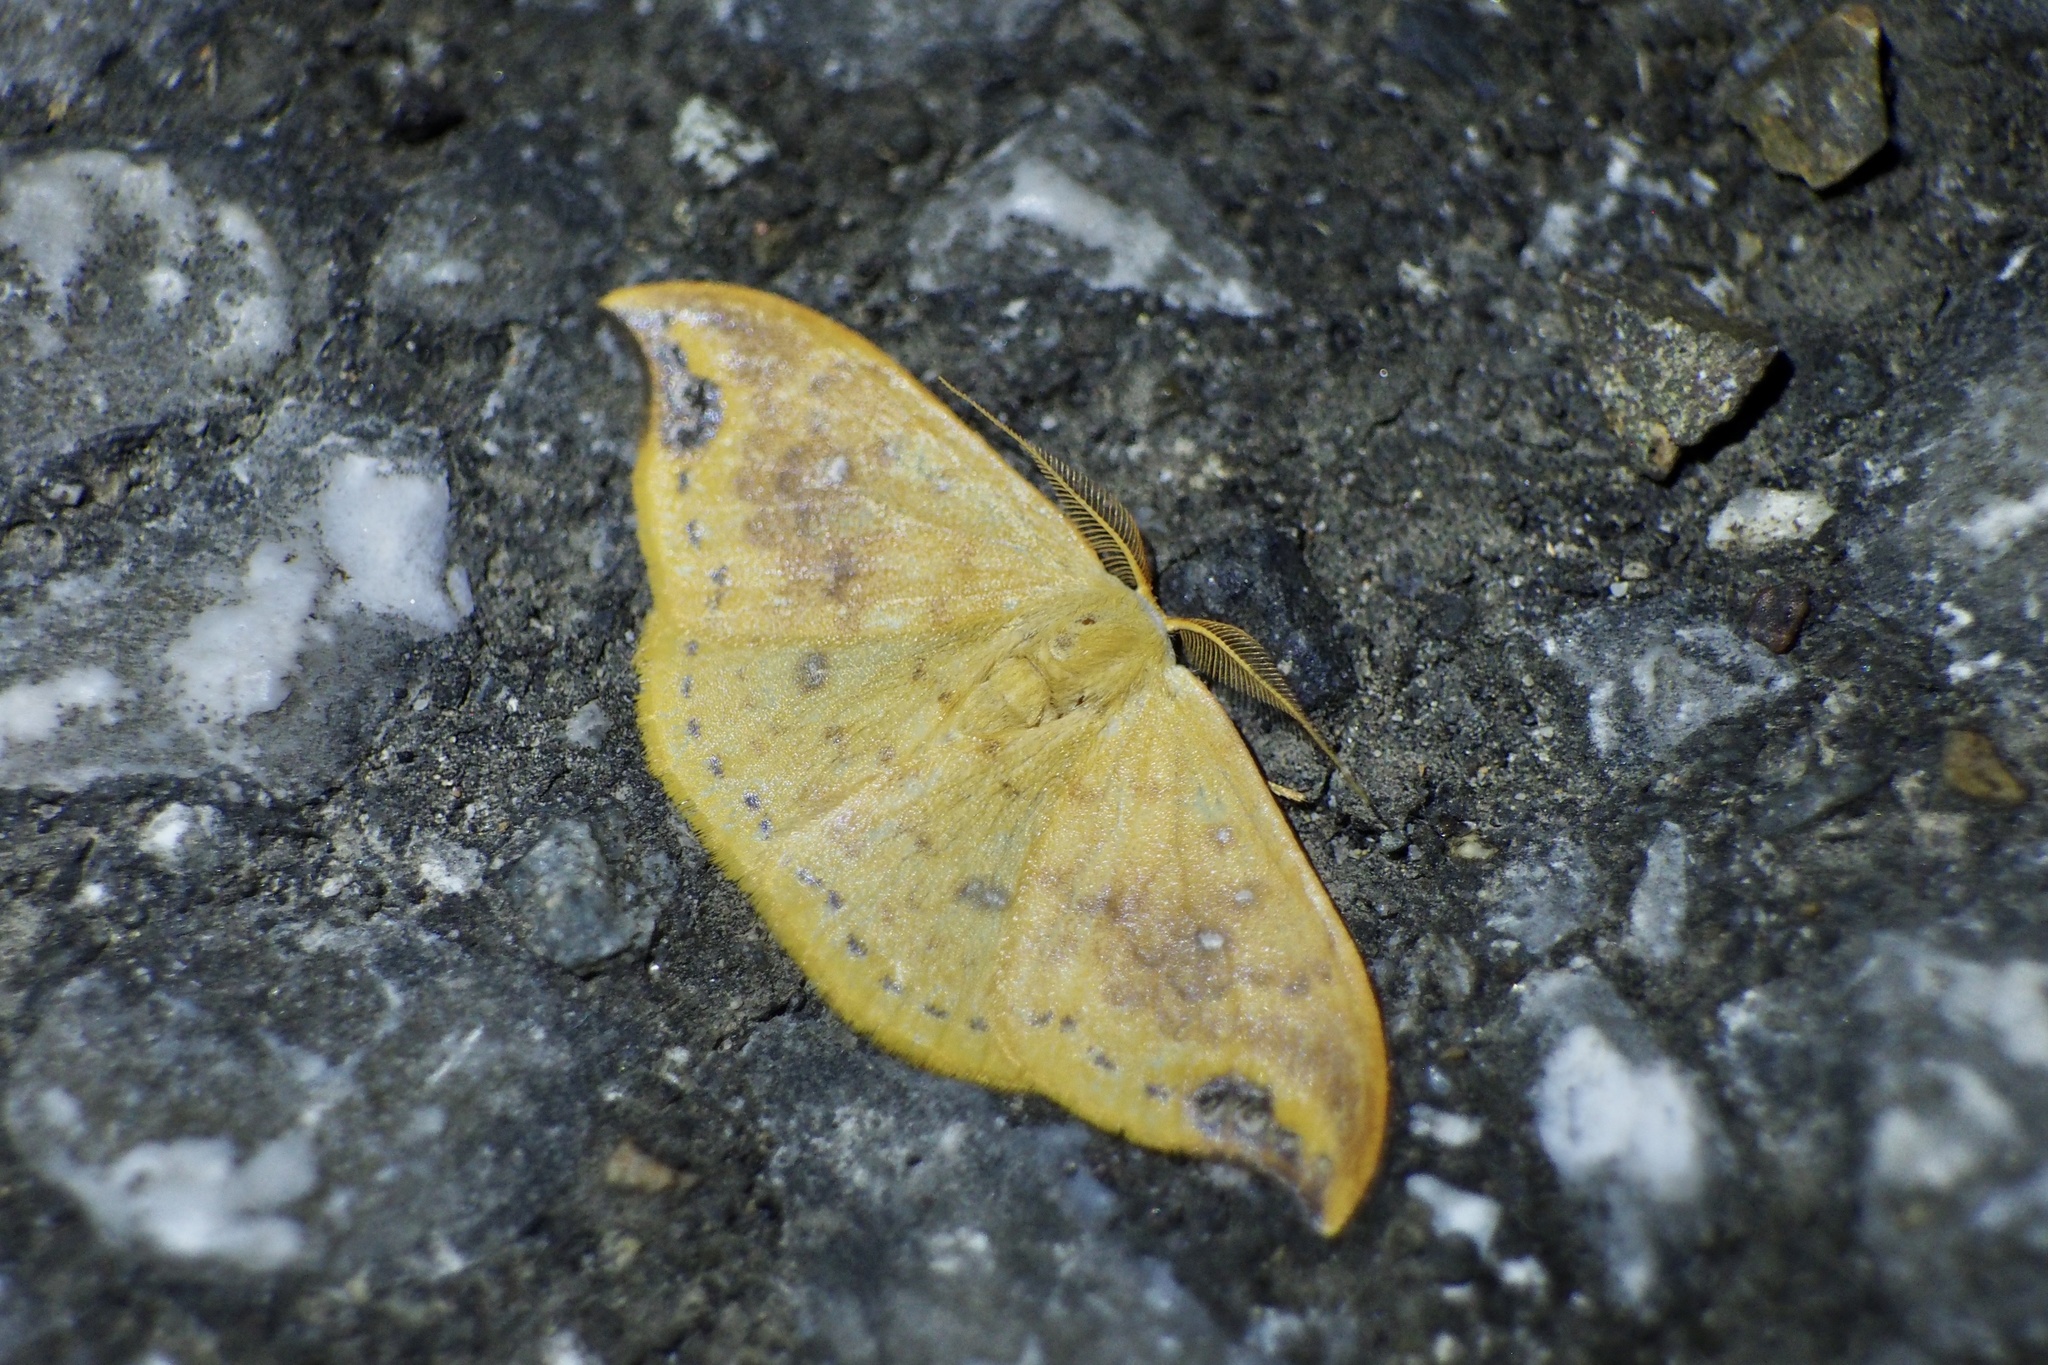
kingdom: Animalia
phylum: Arthropoda
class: Insecta
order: Lepidoptera
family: Drepanidae
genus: Tridrepana
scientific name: Tridrepana crocea
